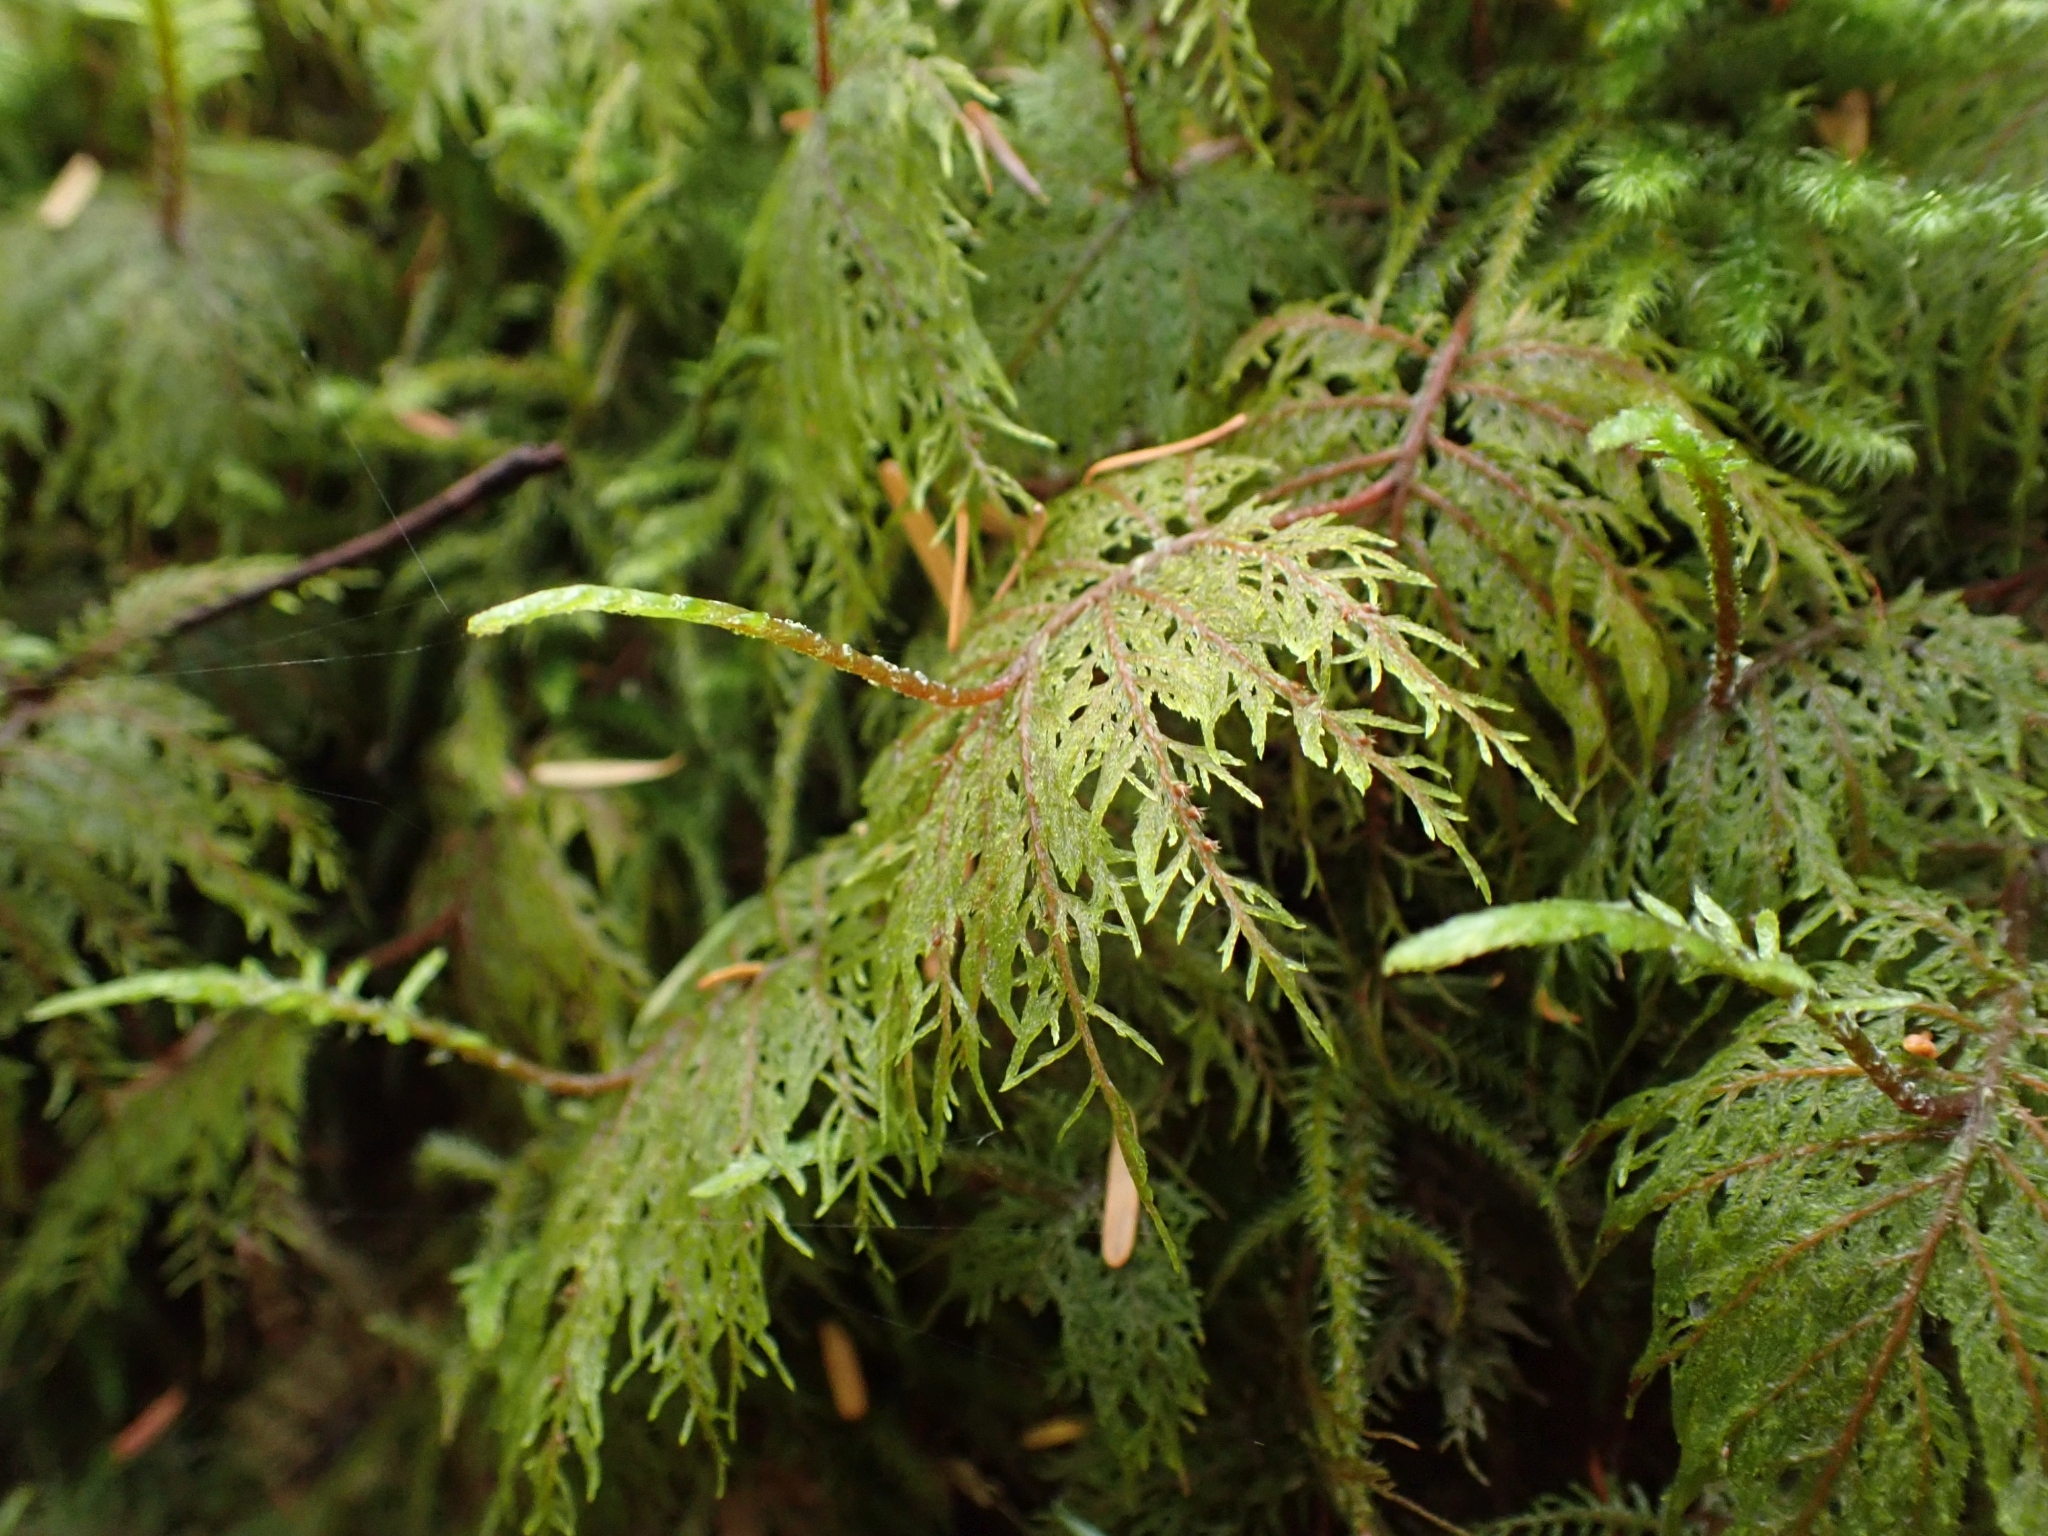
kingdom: Plantae
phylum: Bryophyta
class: Bryopsida
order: Hypnales
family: Hylocomiaceae
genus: Hylocomium
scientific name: Hylocomium splendens
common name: Stairstep moss
